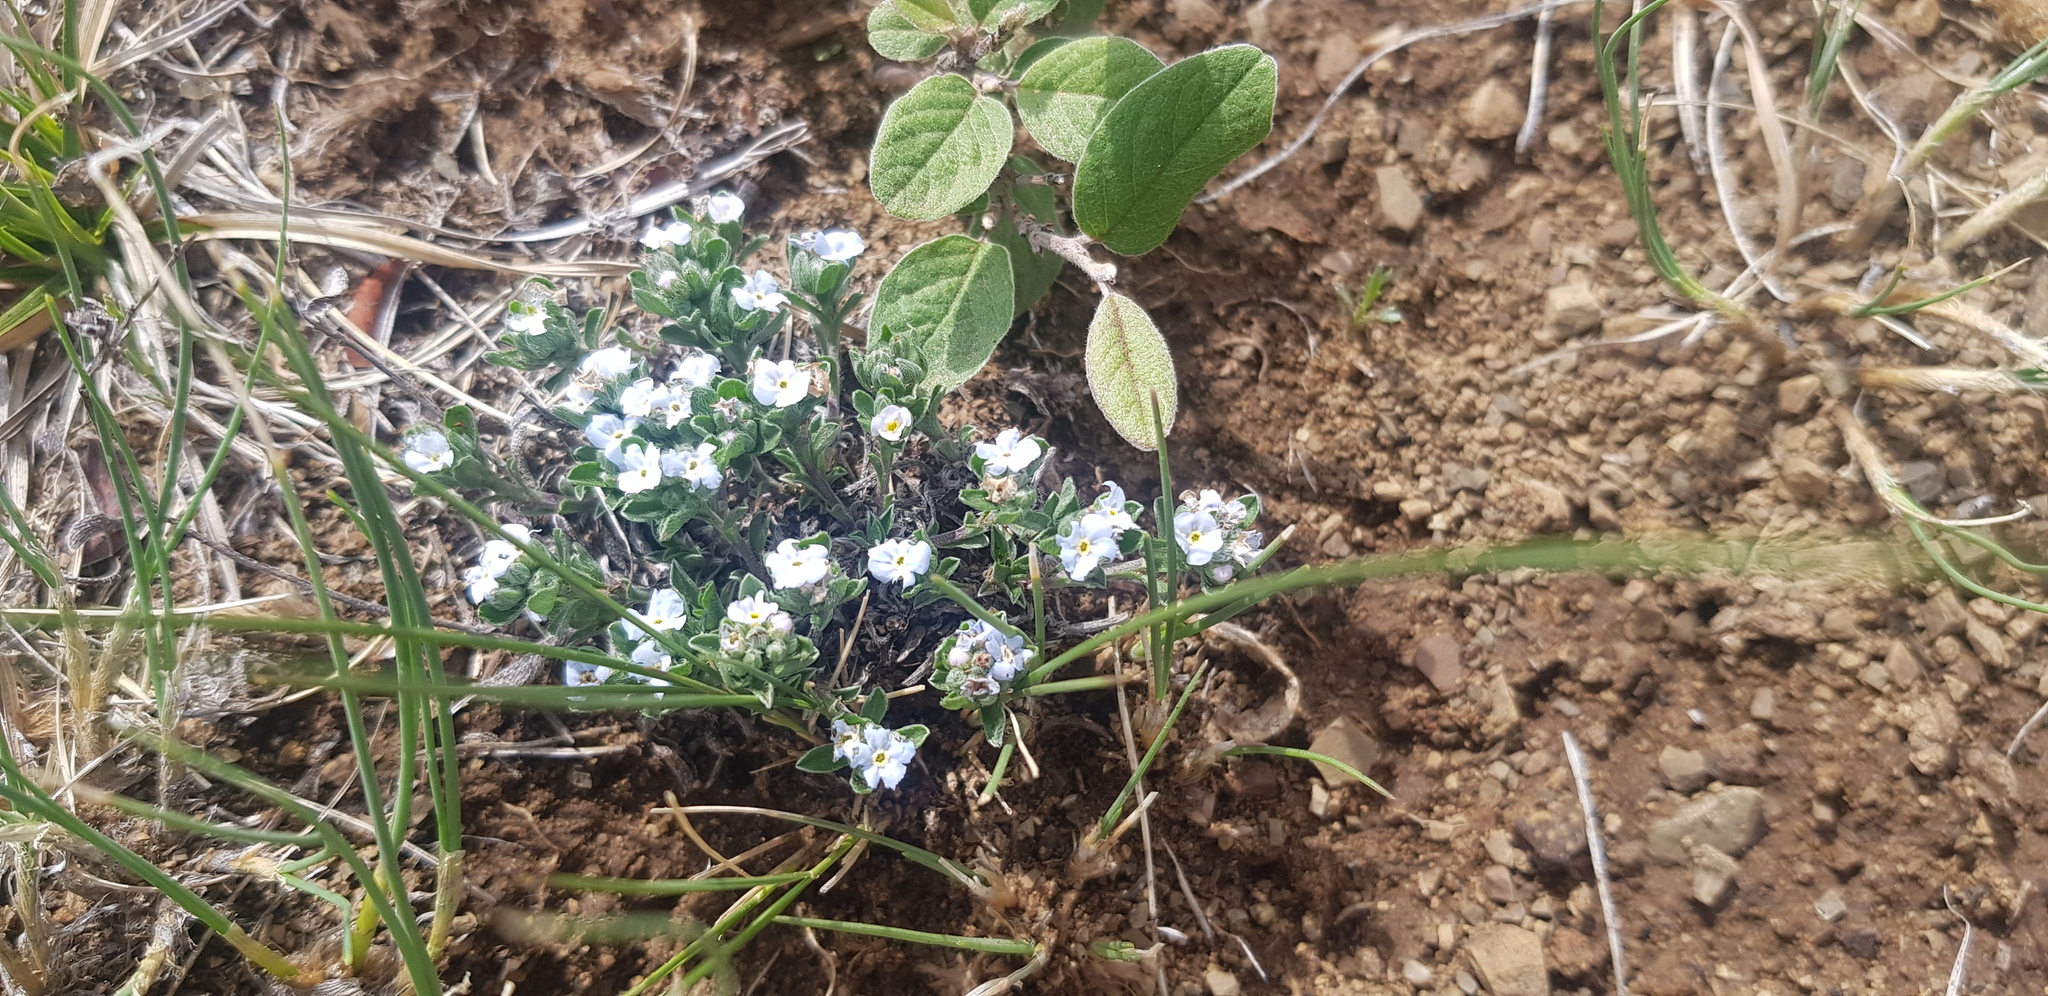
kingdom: Plantae
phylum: Tracheophyta
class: Magnoliopsida
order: Boraginales
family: Boraginaceae
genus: Eritrichium
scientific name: Eritrichium rupestre
